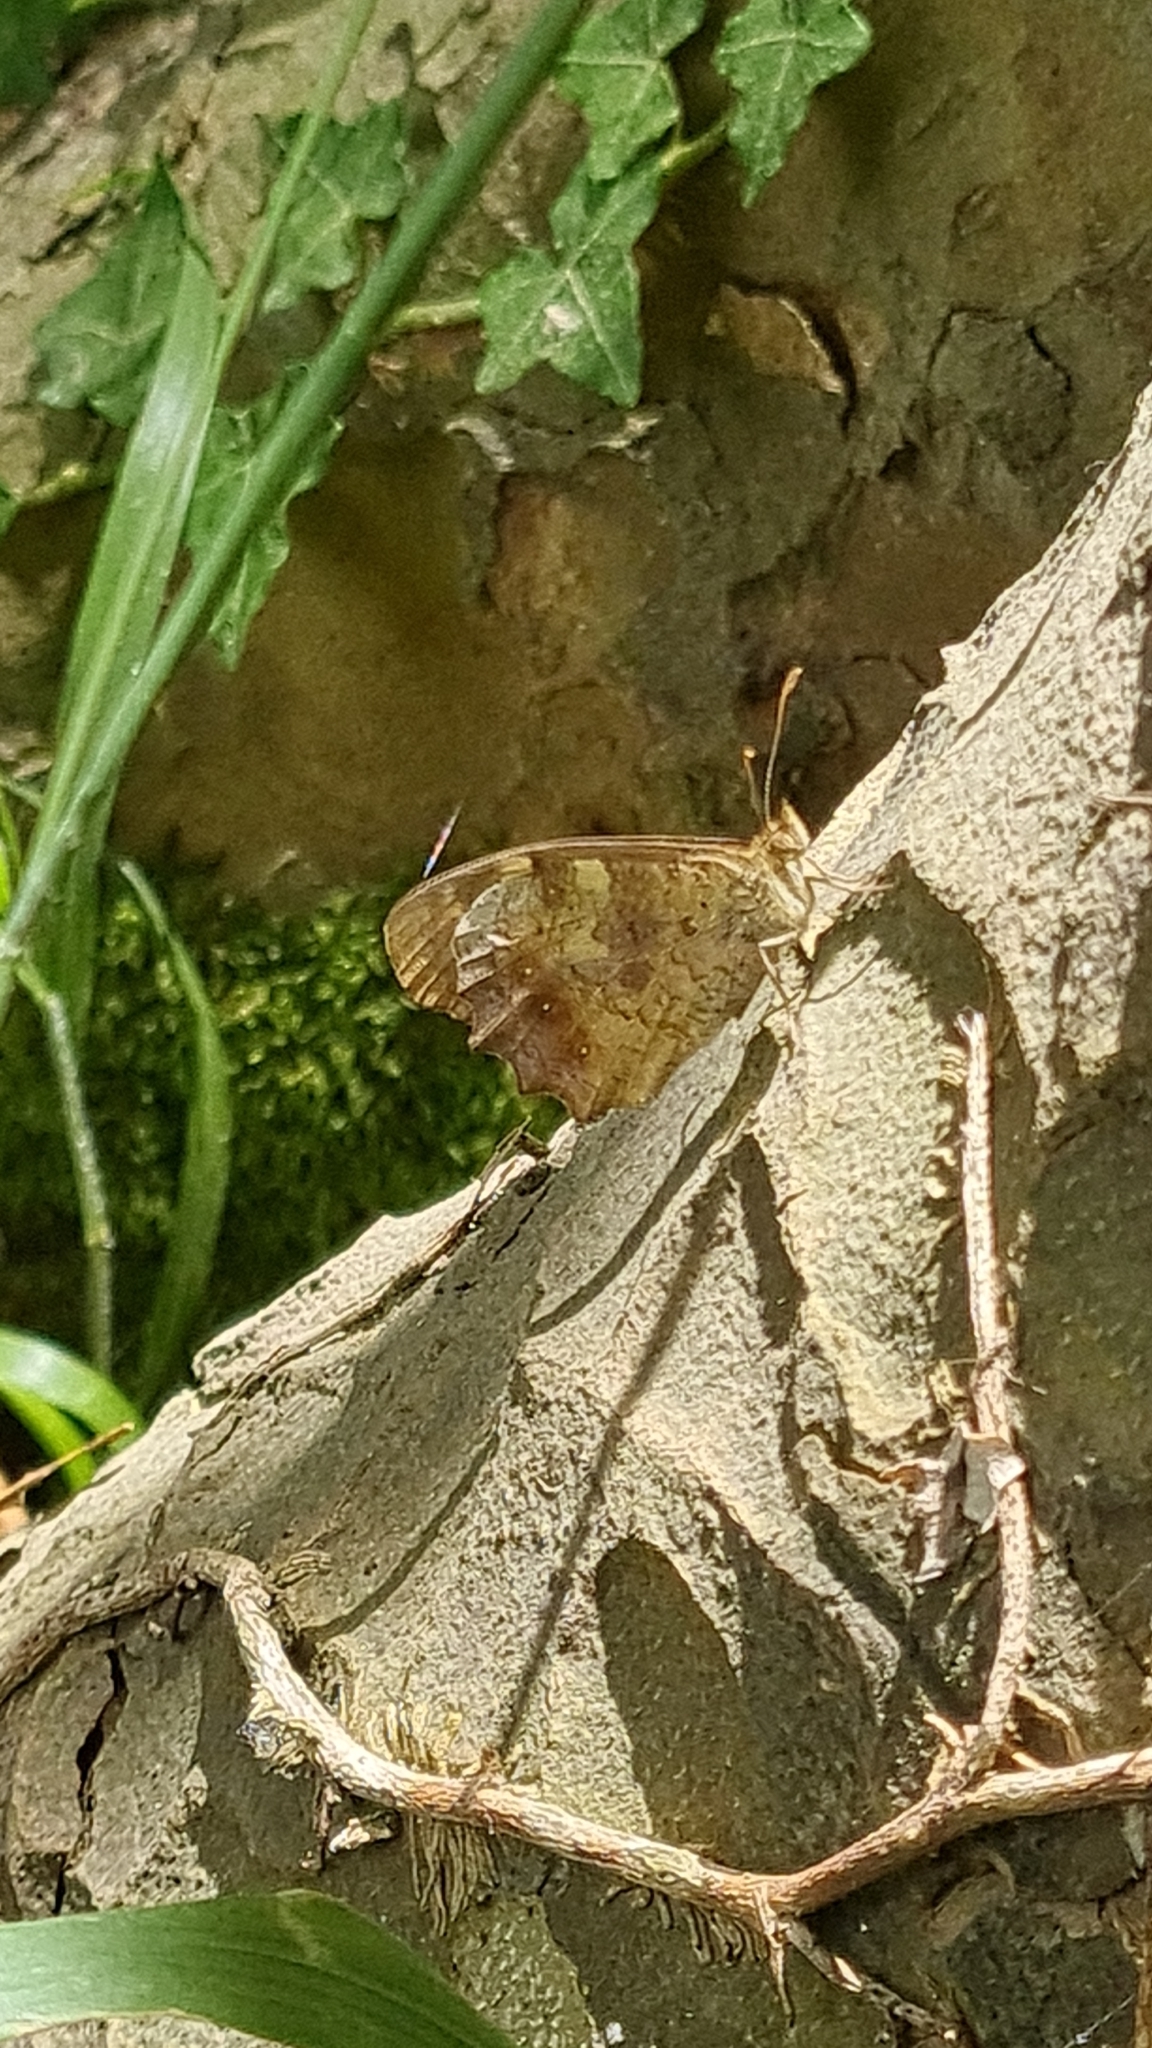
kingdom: Animalia
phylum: Arthropoda
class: Insecta
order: Lepidoptera
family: Nymphalidae
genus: Pararge
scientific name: Pararge aegeria
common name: Speckled wood
